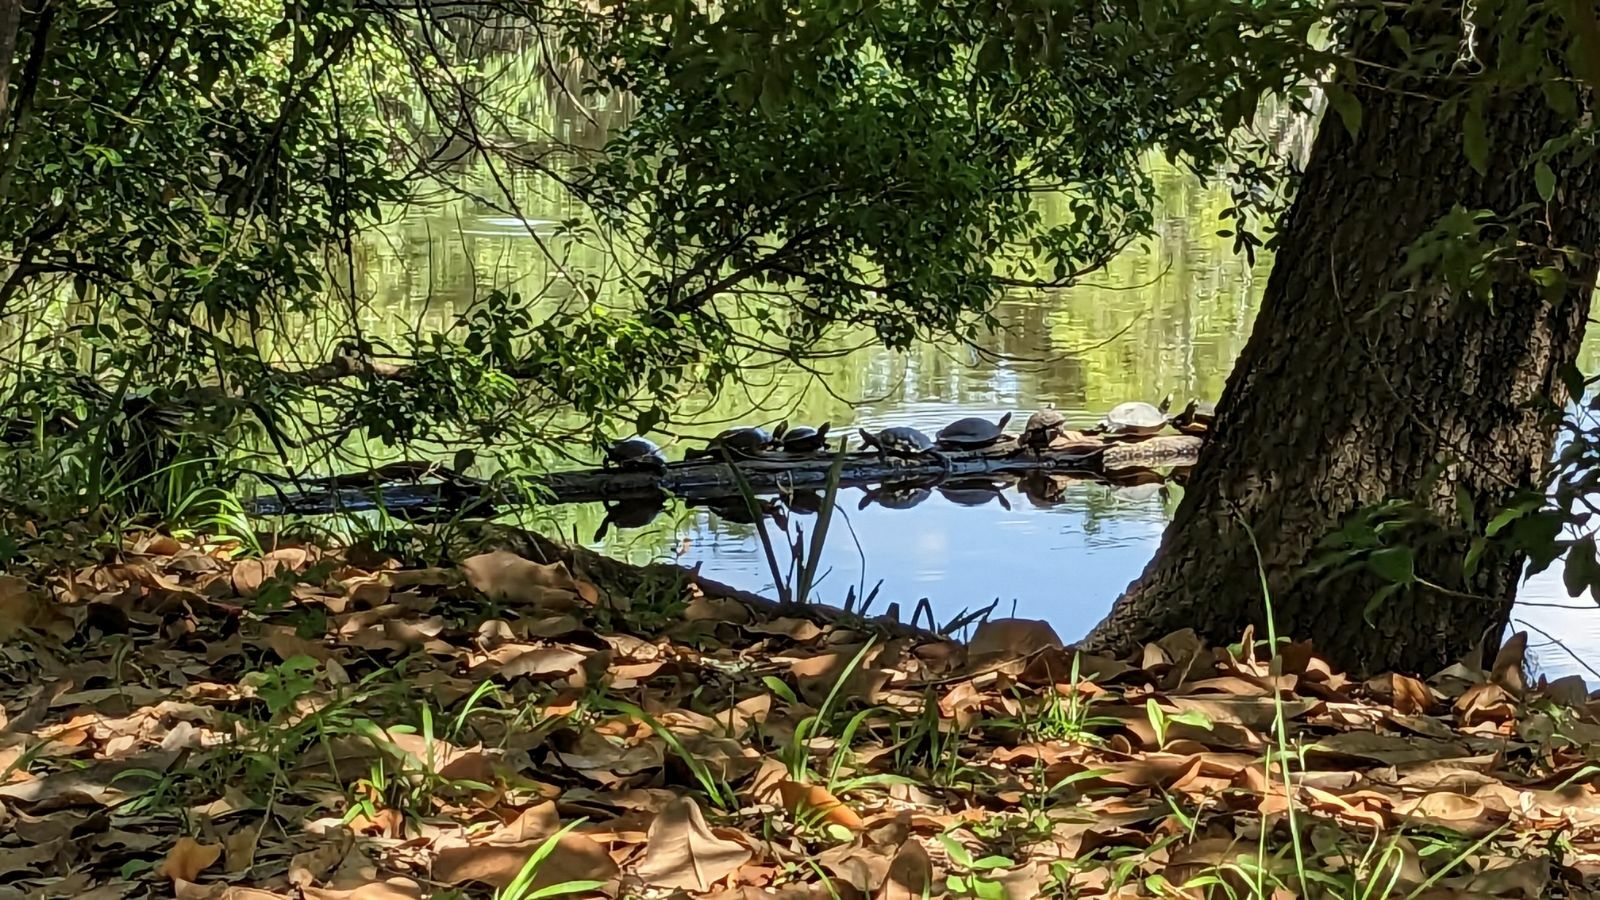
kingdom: Animalia
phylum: Chordata
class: Testudines
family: Emydidae
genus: Pseudemys
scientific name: Pseudemys concinna
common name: Eastern river cooter
